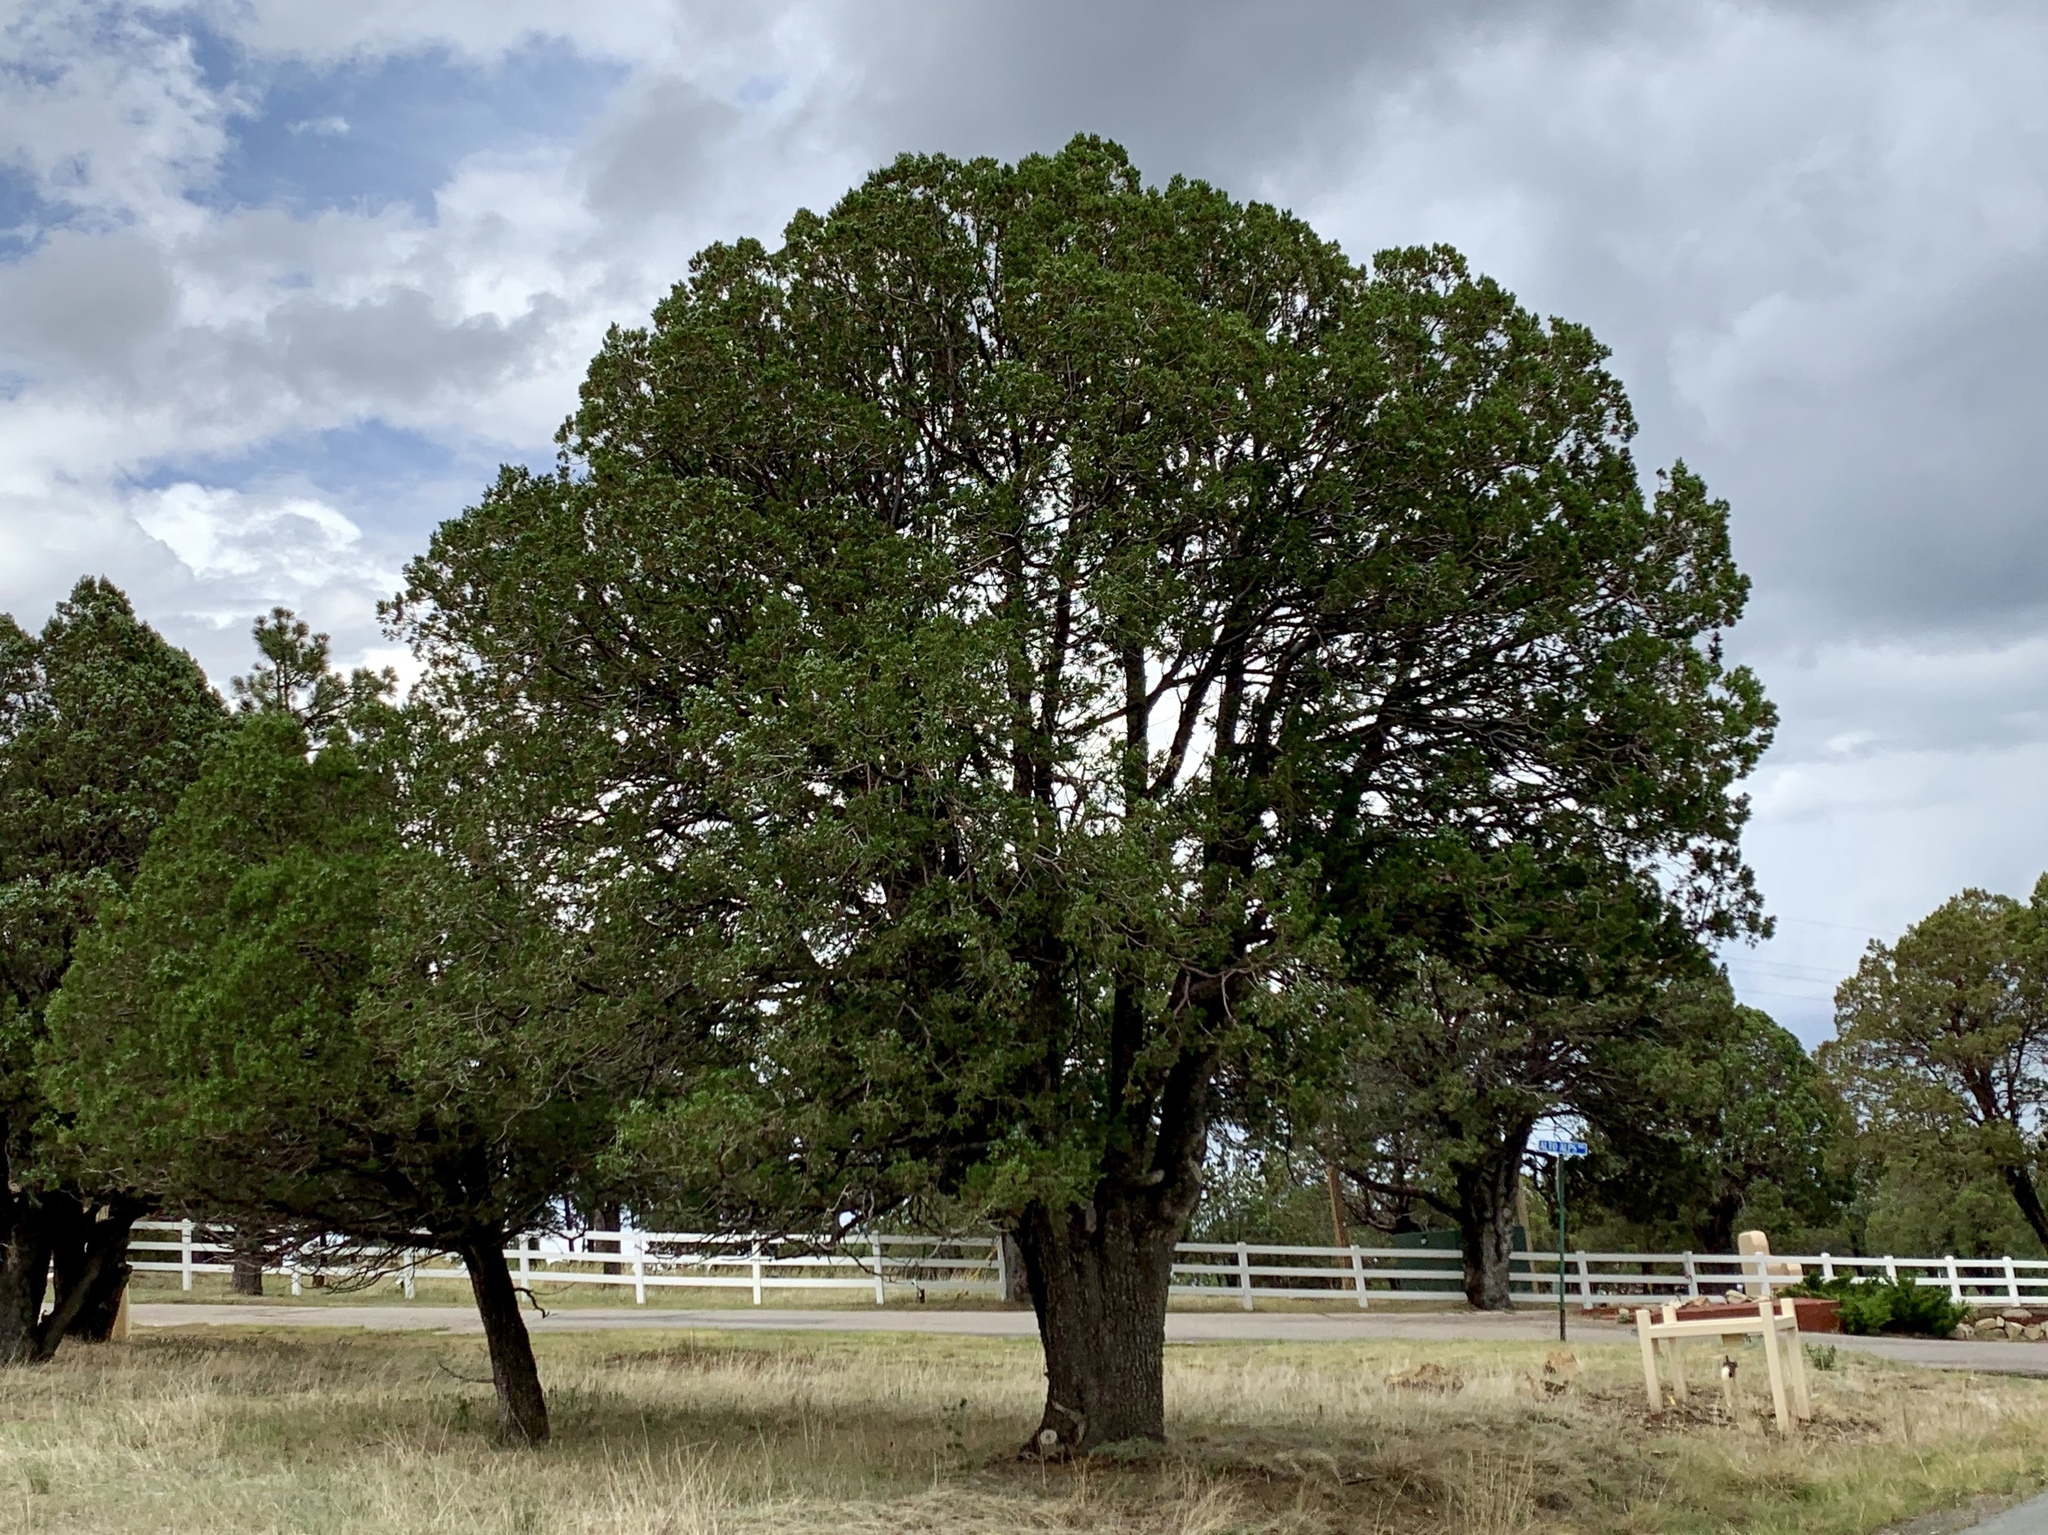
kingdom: Plantae
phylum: Tracheophyta
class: Pinopsida
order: Pinales
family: Cupressaceae
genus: Juniperus
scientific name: Juniperus deppeana
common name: Alligator juniper
